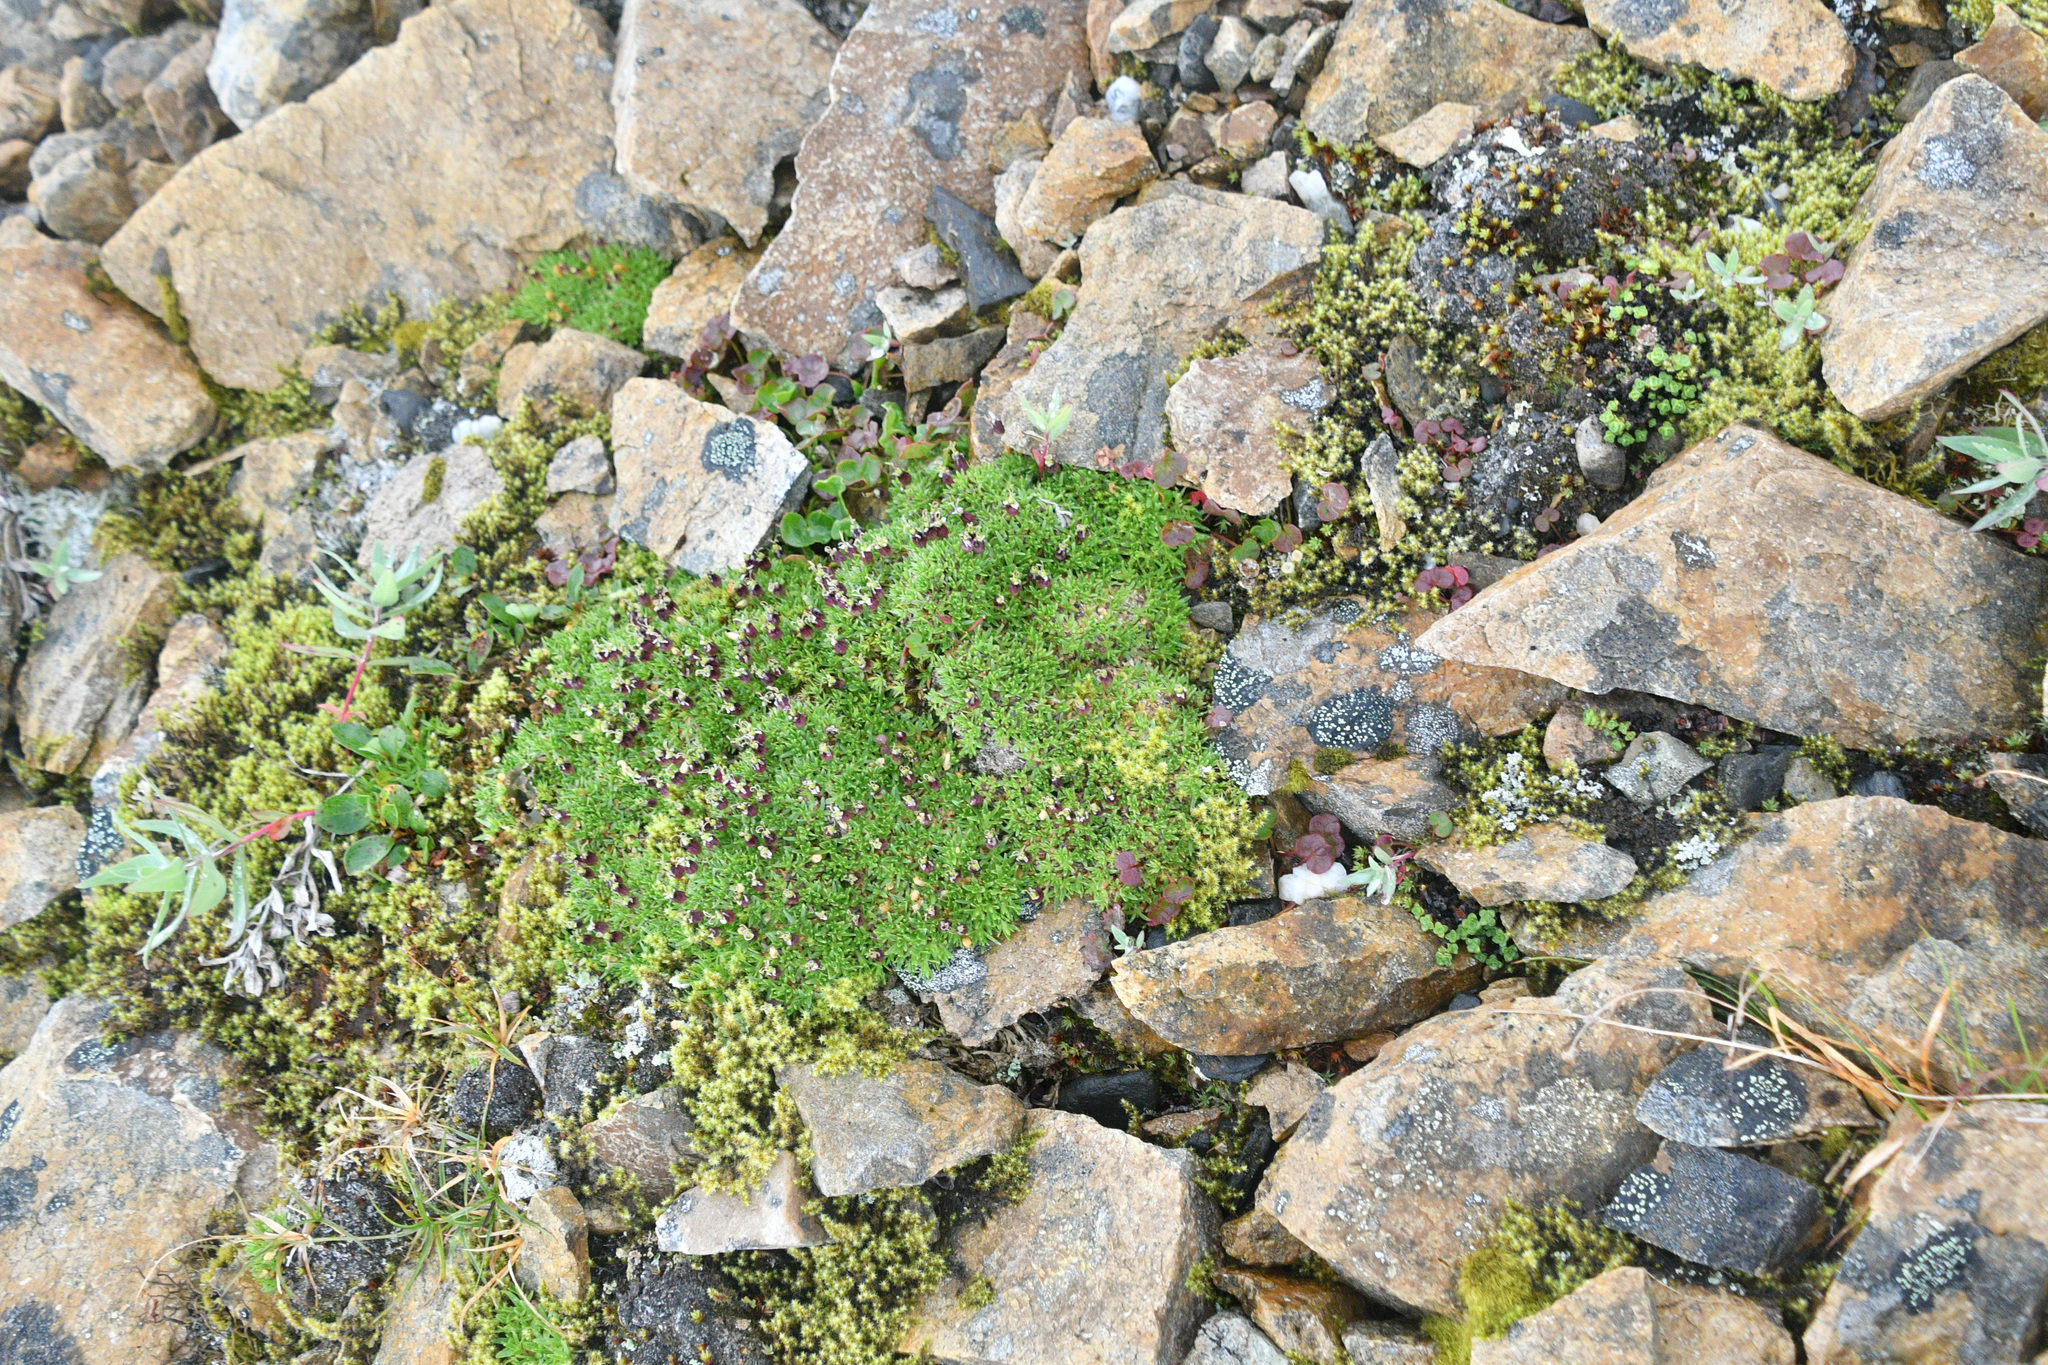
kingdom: Plantae
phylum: Tracheophyta
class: Magnoliopsida
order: Caryophyllales
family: Caryophyllaceae
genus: Silene
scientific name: Silene acaulis
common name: Moss campion
